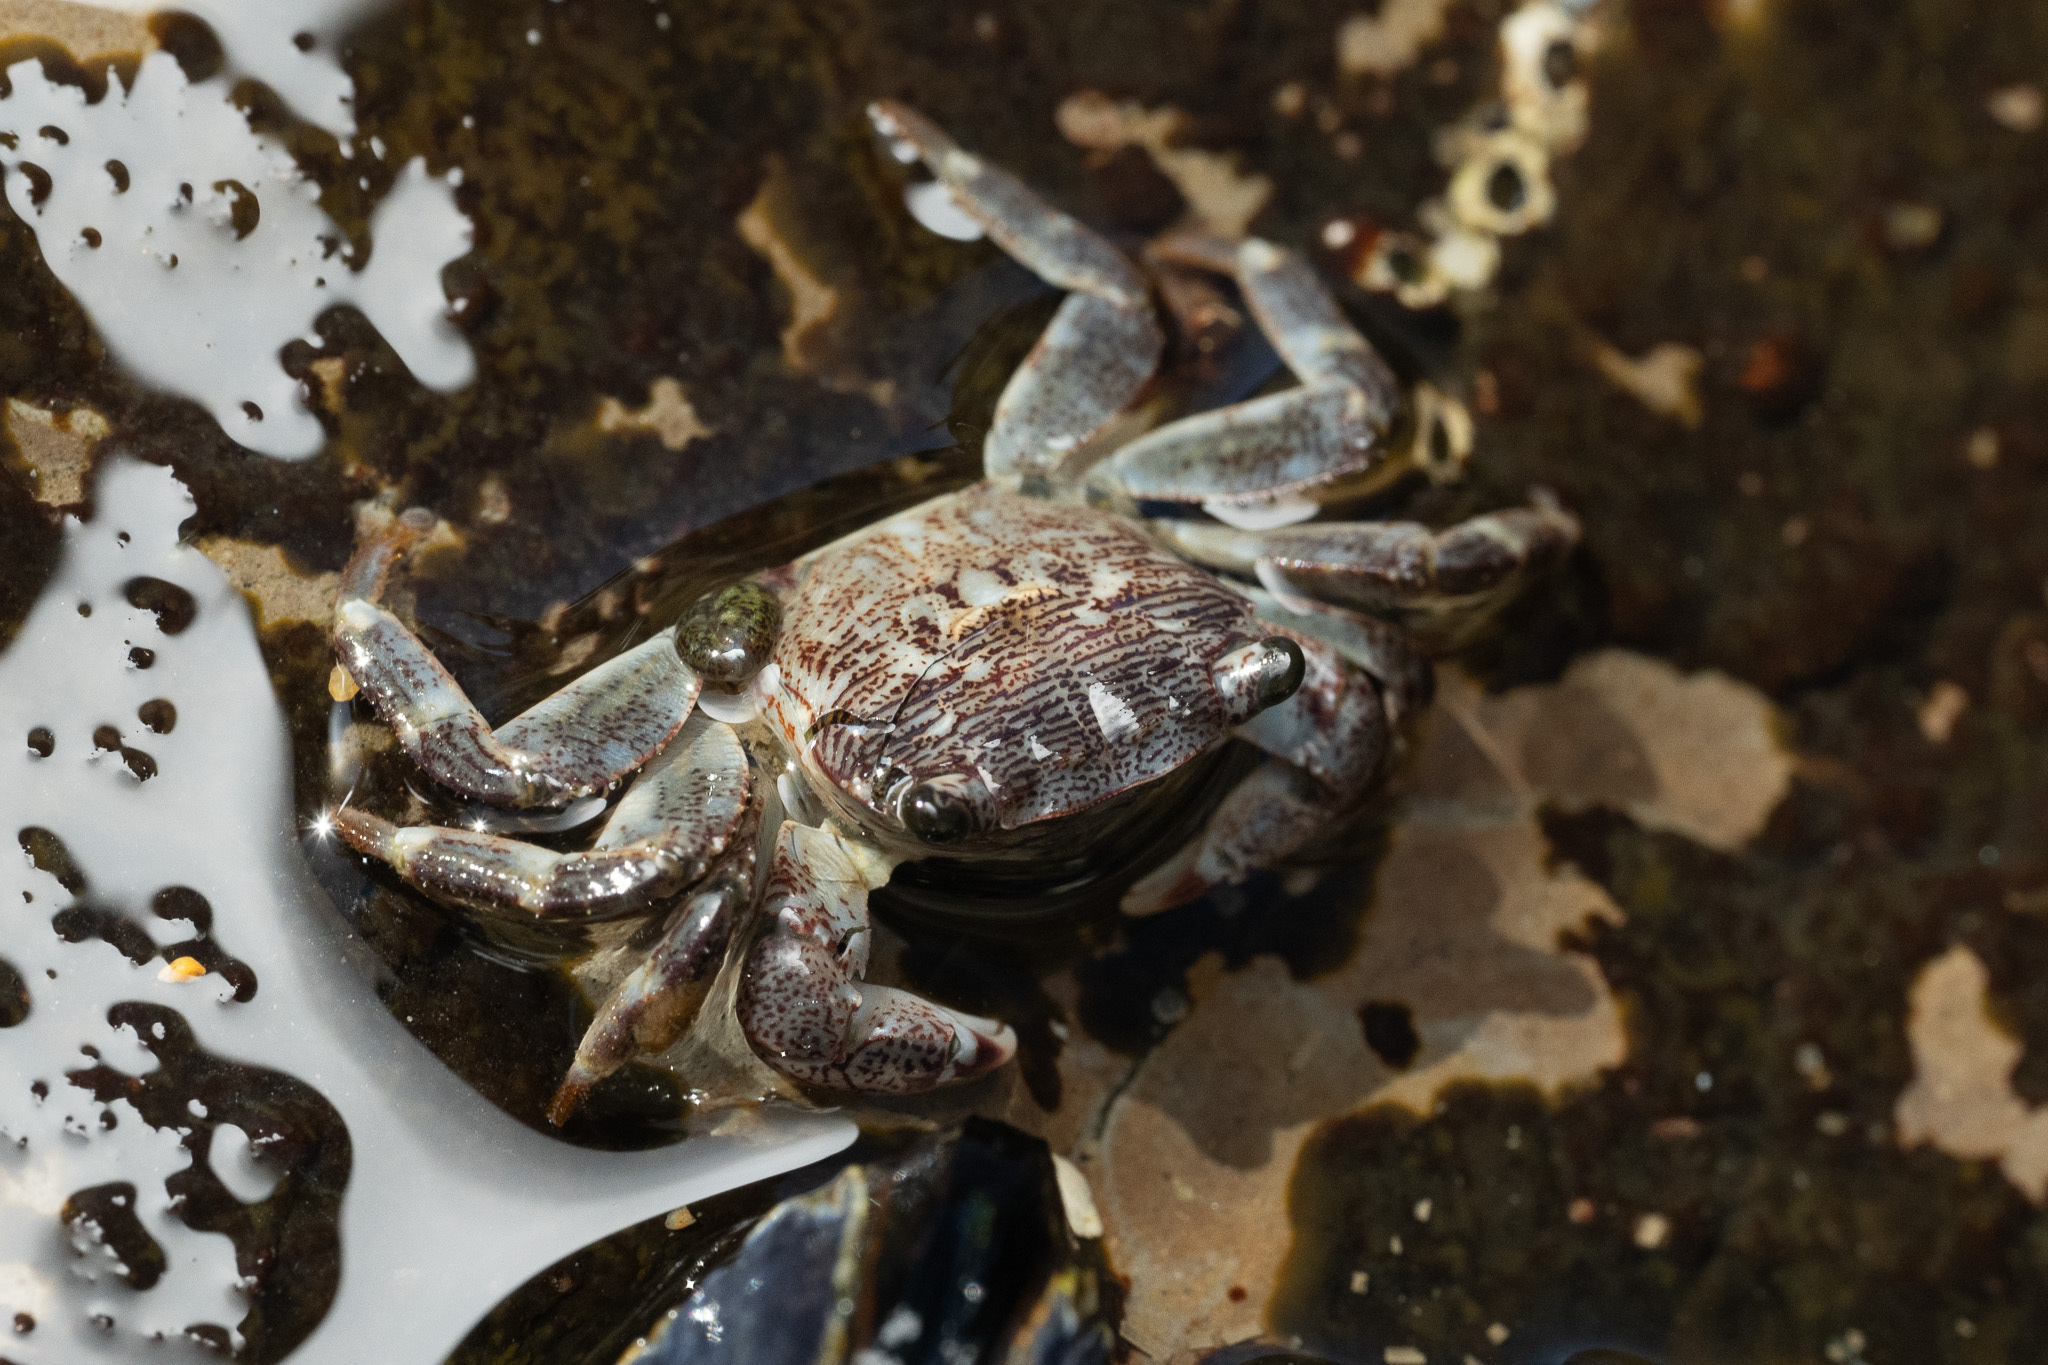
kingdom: Animalia
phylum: Arthropoda
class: Malacostraca
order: Decapoda
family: Grapsidae
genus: Pachygrapsus
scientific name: Pachygrapsus crassipes
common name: Striped shore crab
